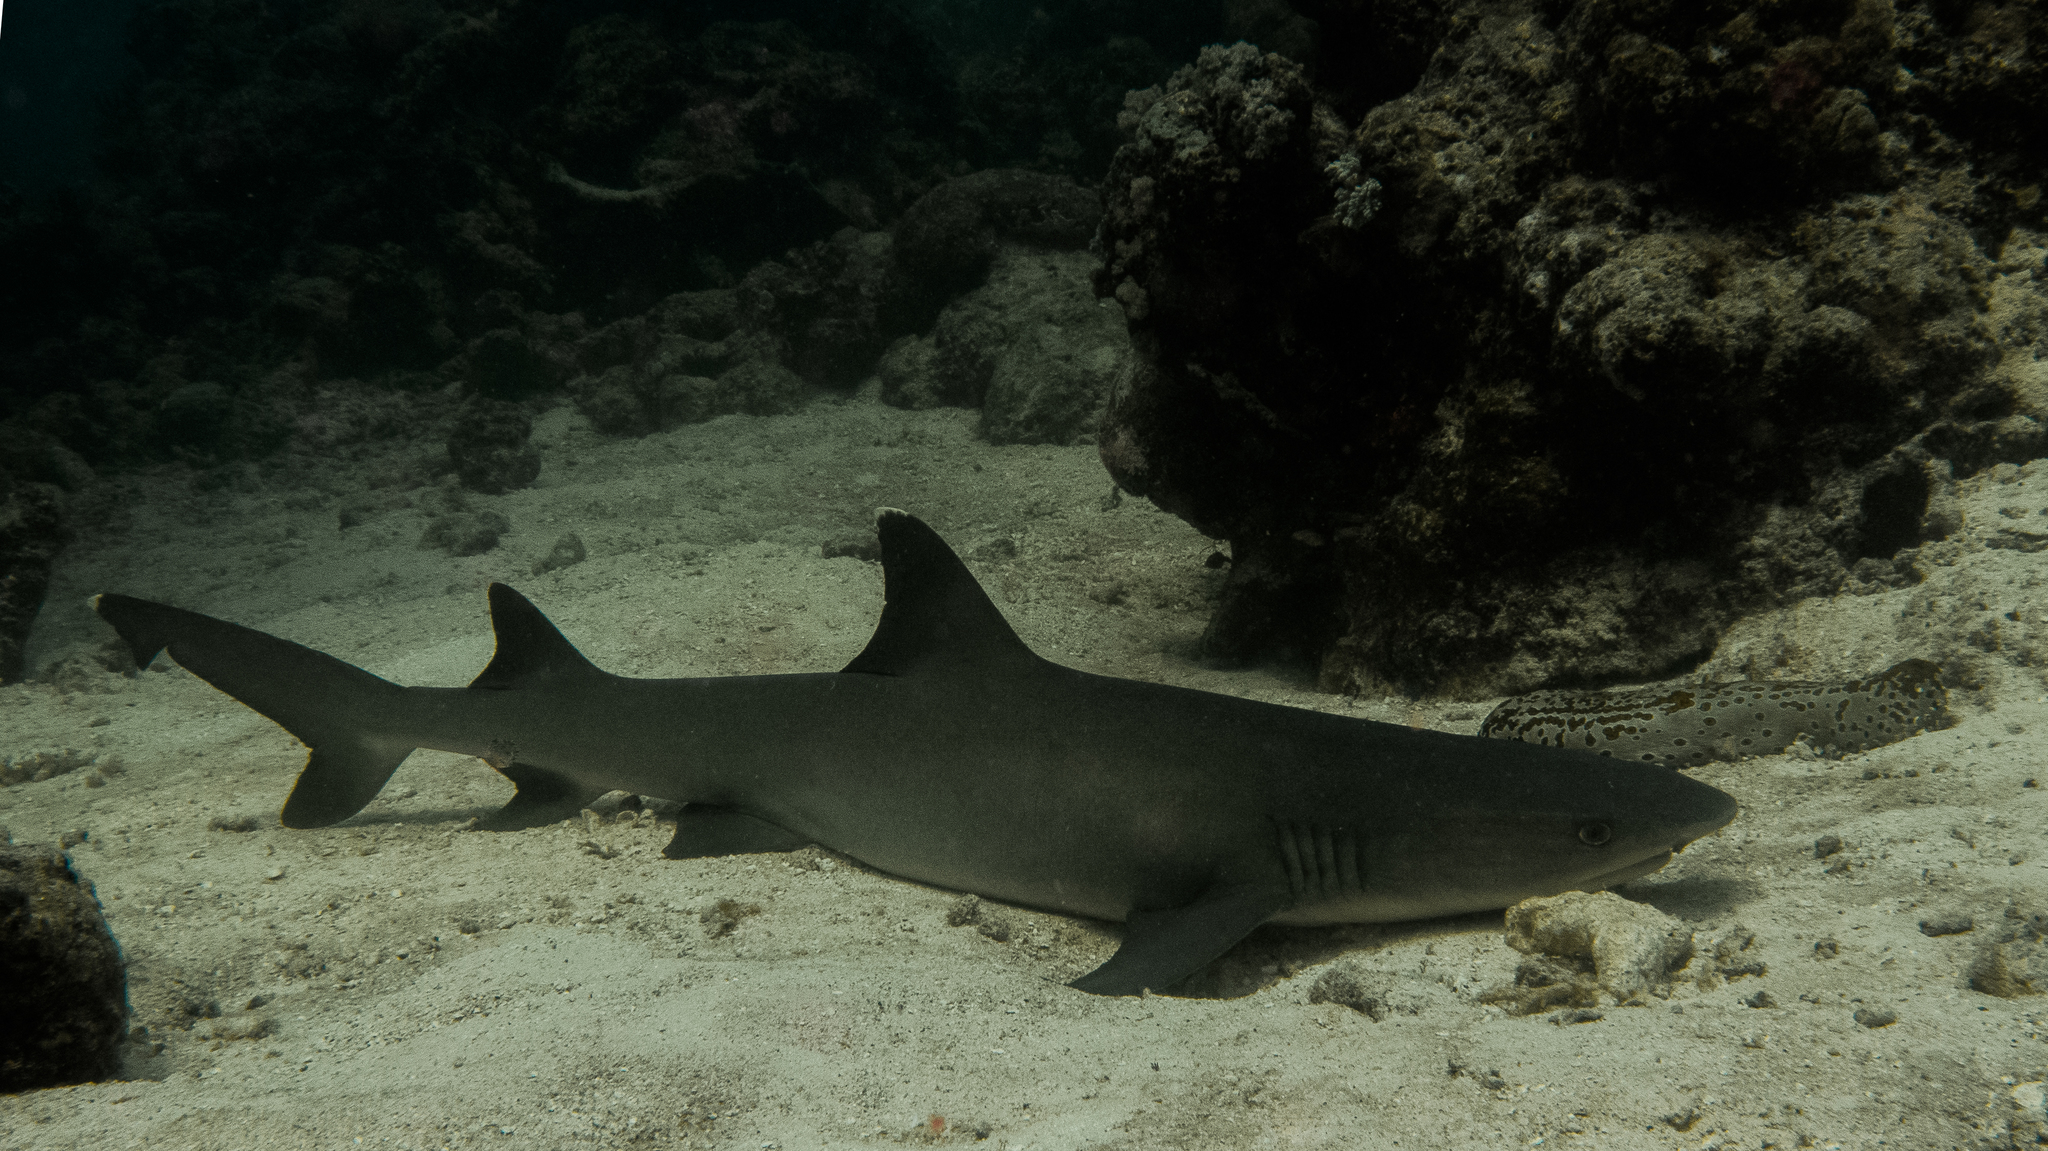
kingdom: Animalia
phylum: Chordata
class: Elasmobranchii
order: Carcharhiniformes
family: Carcharhinidae
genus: Triaenodon
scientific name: Triaenodon obesus
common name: Whitetip reef shark
